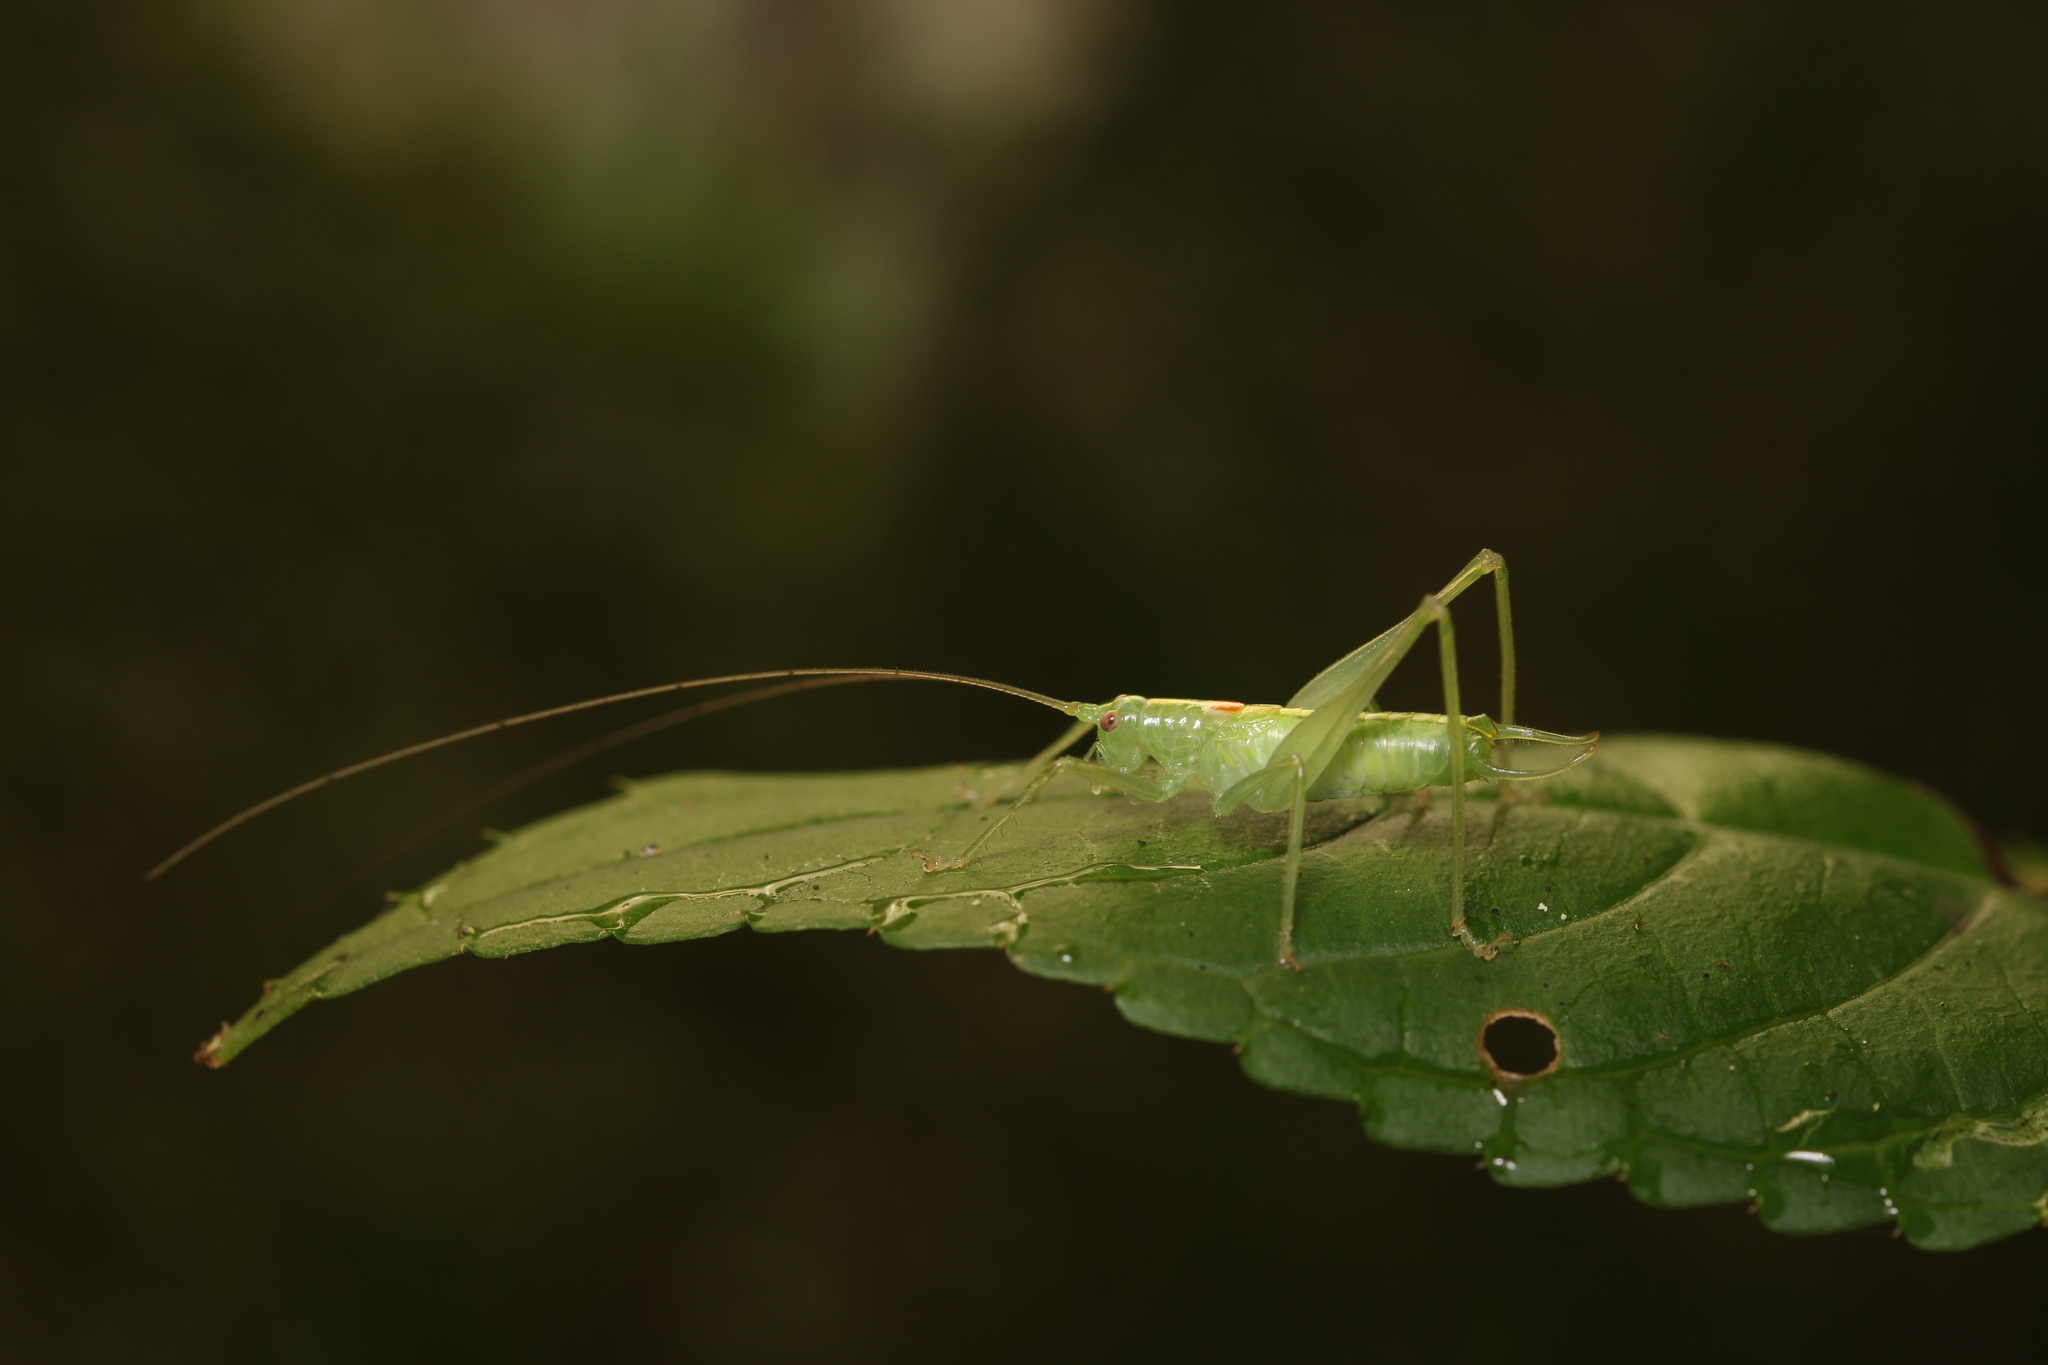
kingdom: Animalia
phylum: Arthropoda
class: Insecta
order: Orthoptera
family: Tettigoniidae
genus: Meconema
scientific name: Meconema meridionale
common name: Southern oak bush-cricket
